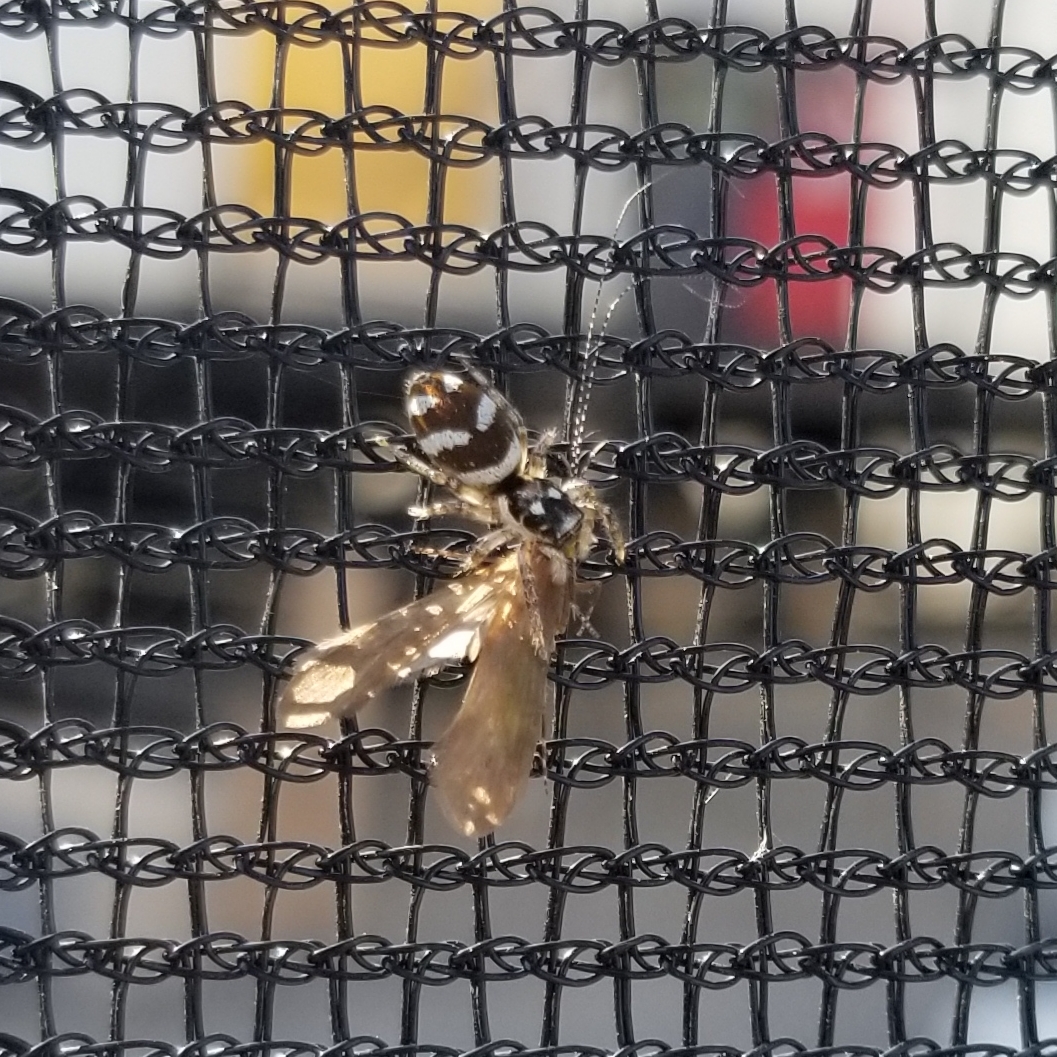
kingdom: Animalia
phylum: Arthropoda
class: Arachnida
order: Araneae
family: Salticidae
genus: Salticus
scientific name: Salticus scenicus
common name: Zebra jumper
